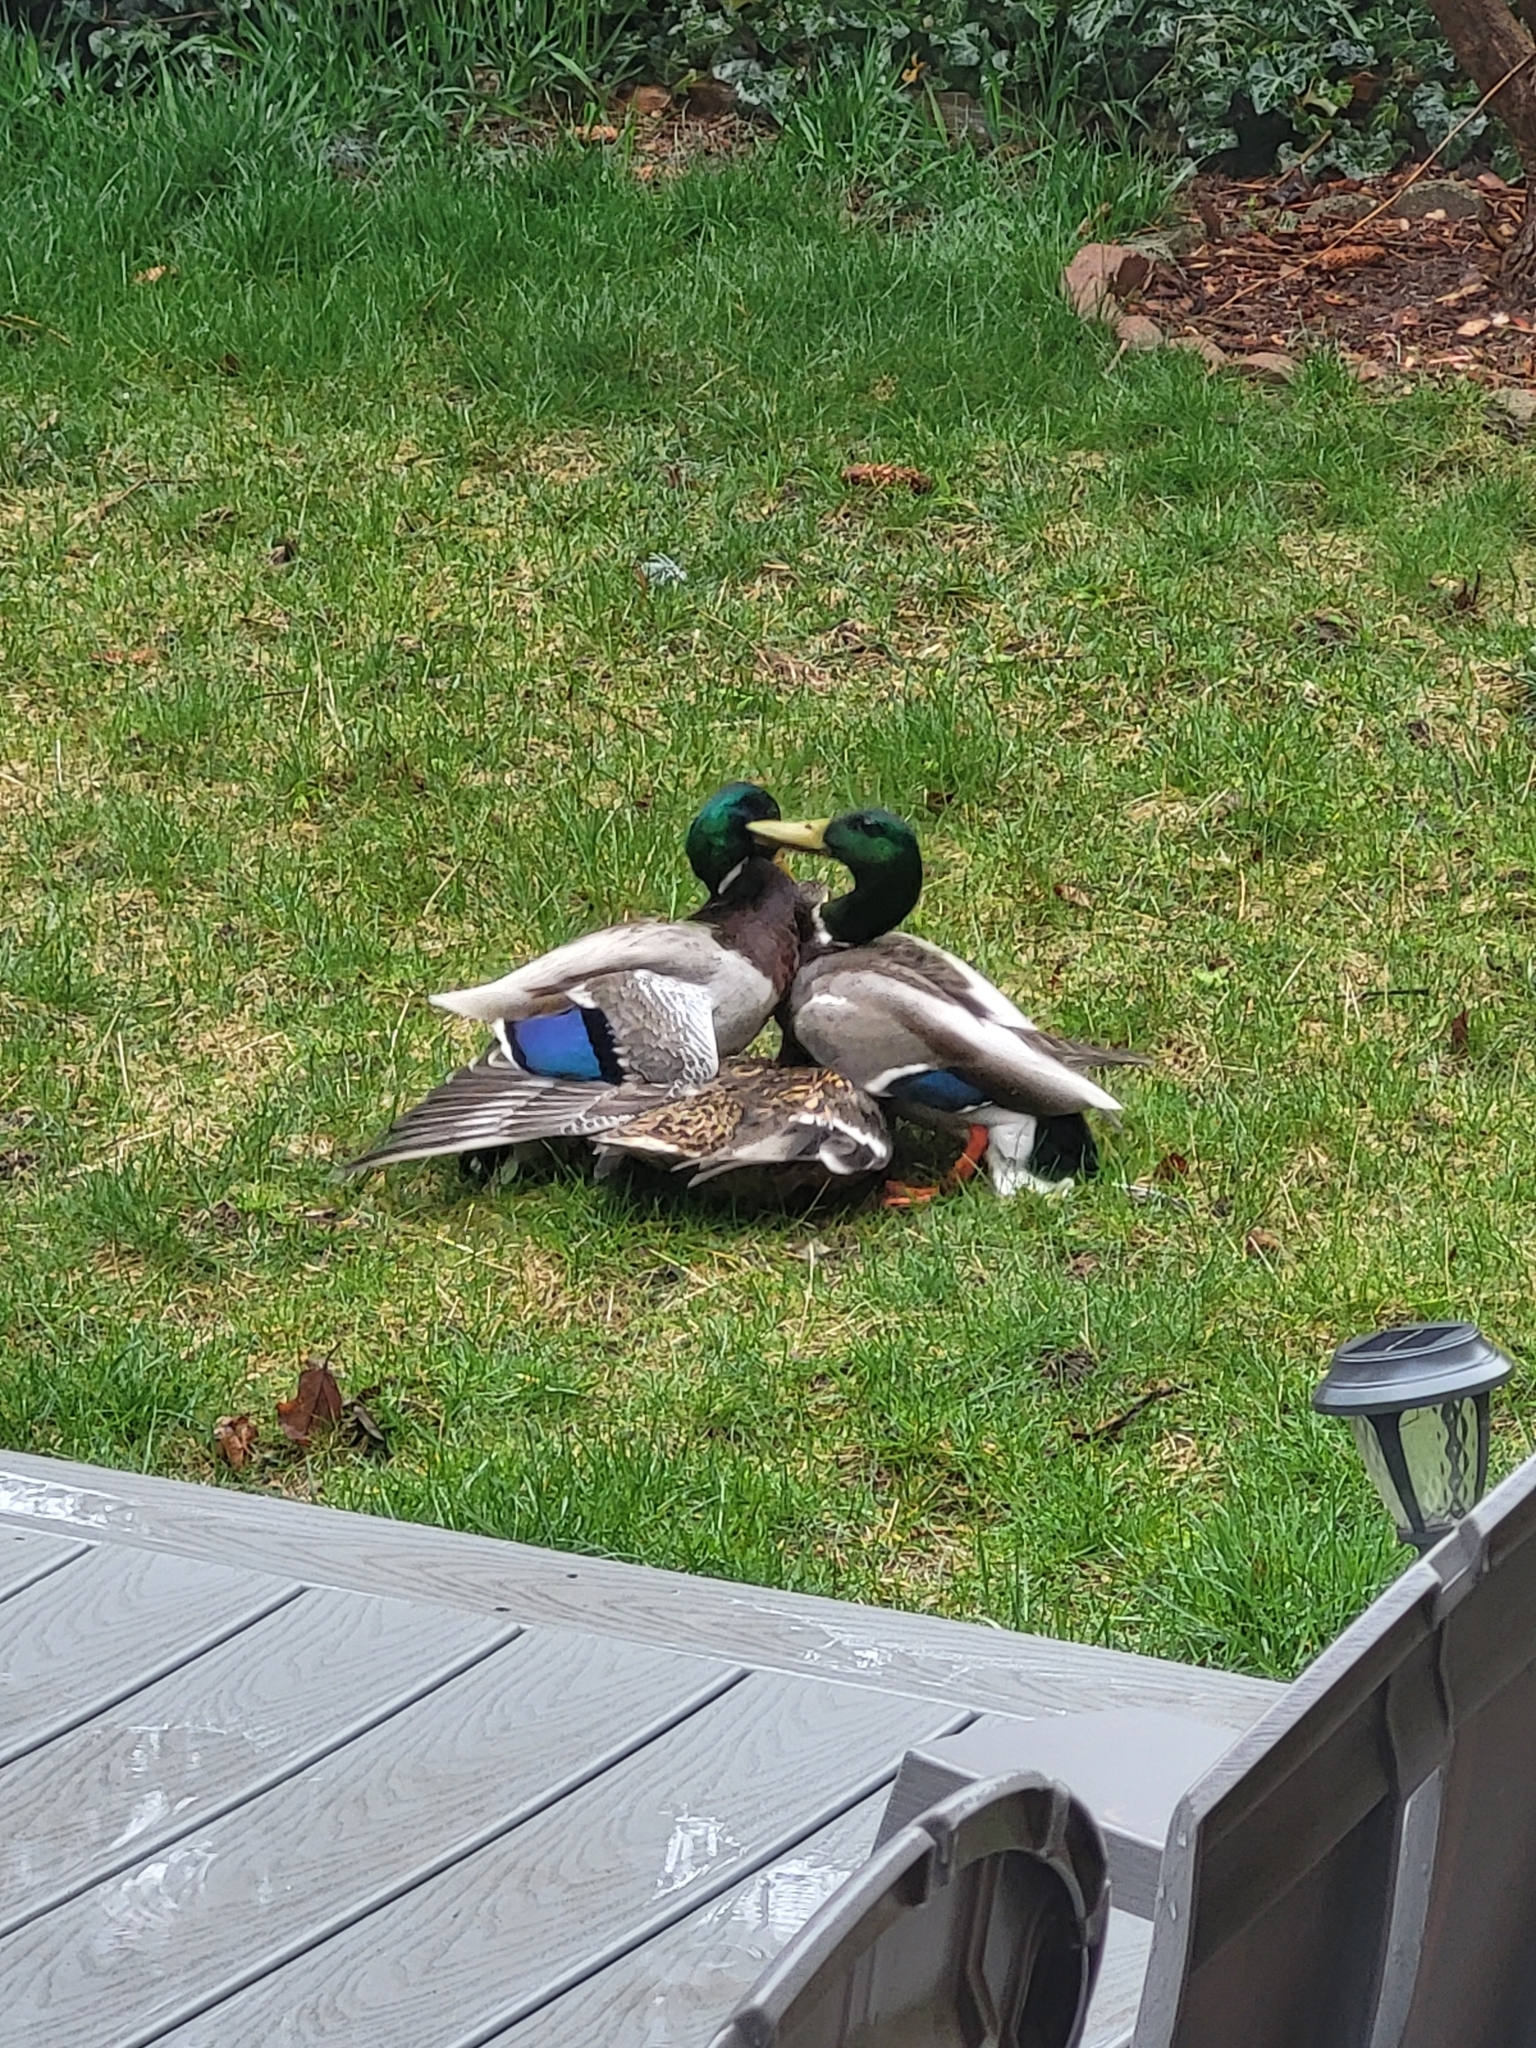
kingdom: Animalia
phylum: Chordata
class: Aves
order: Anseriformes
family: Anatidae
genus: Anas
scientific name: Anas platyrhynchos
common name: Mallard
